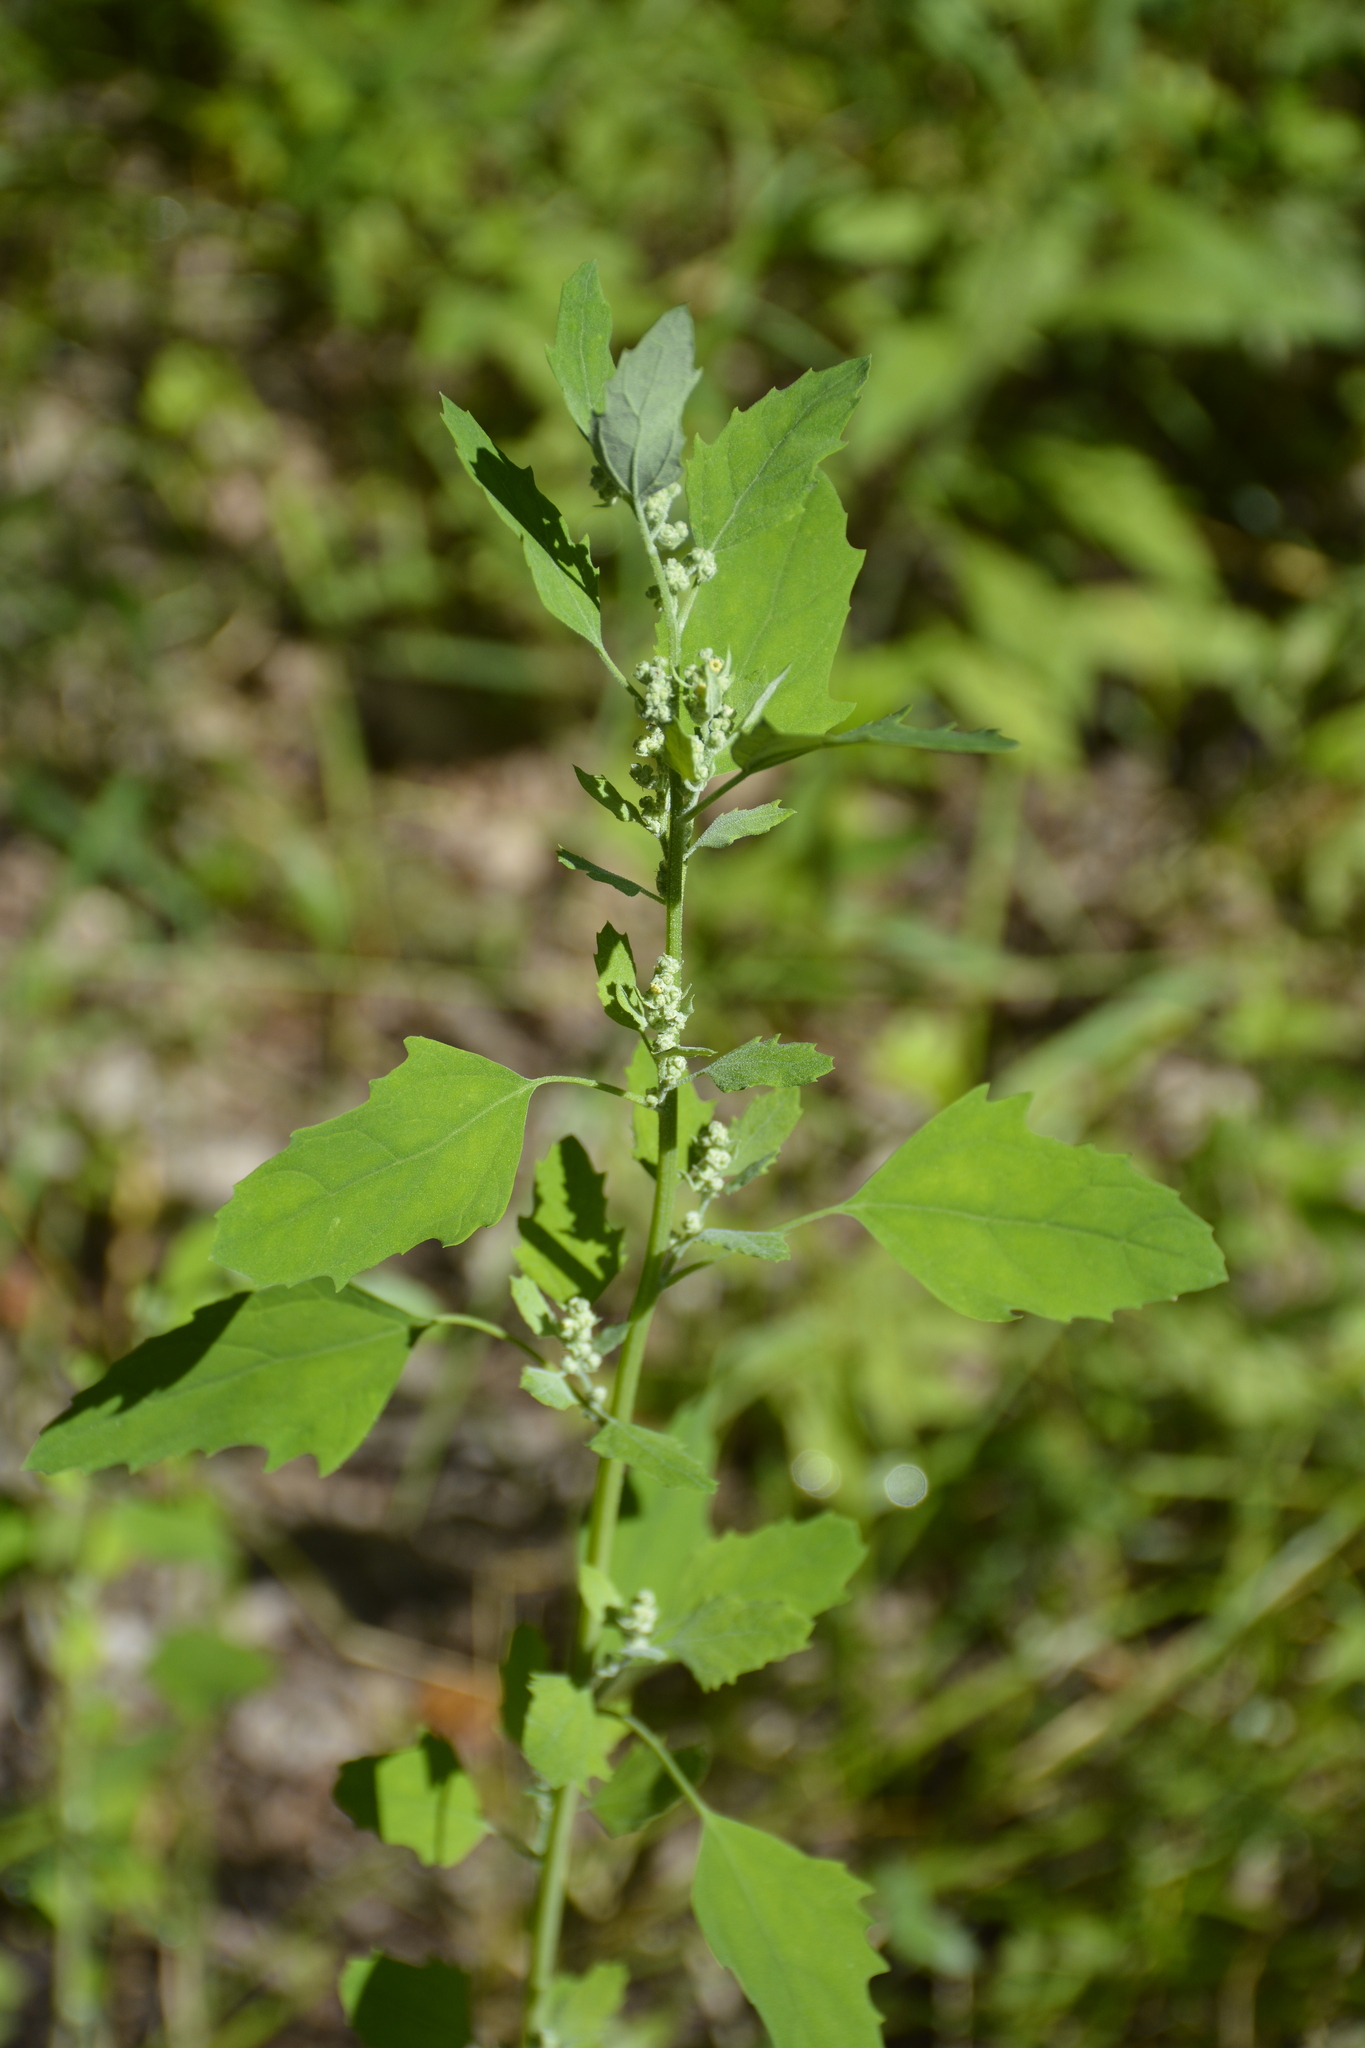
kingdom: Plantae
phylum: Tracheophyta
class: Magnoliopsida
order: Caryophyllales
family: Amaranthaceae
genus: Chenopodium
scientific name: Chenopodium album
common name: Fat-hen
